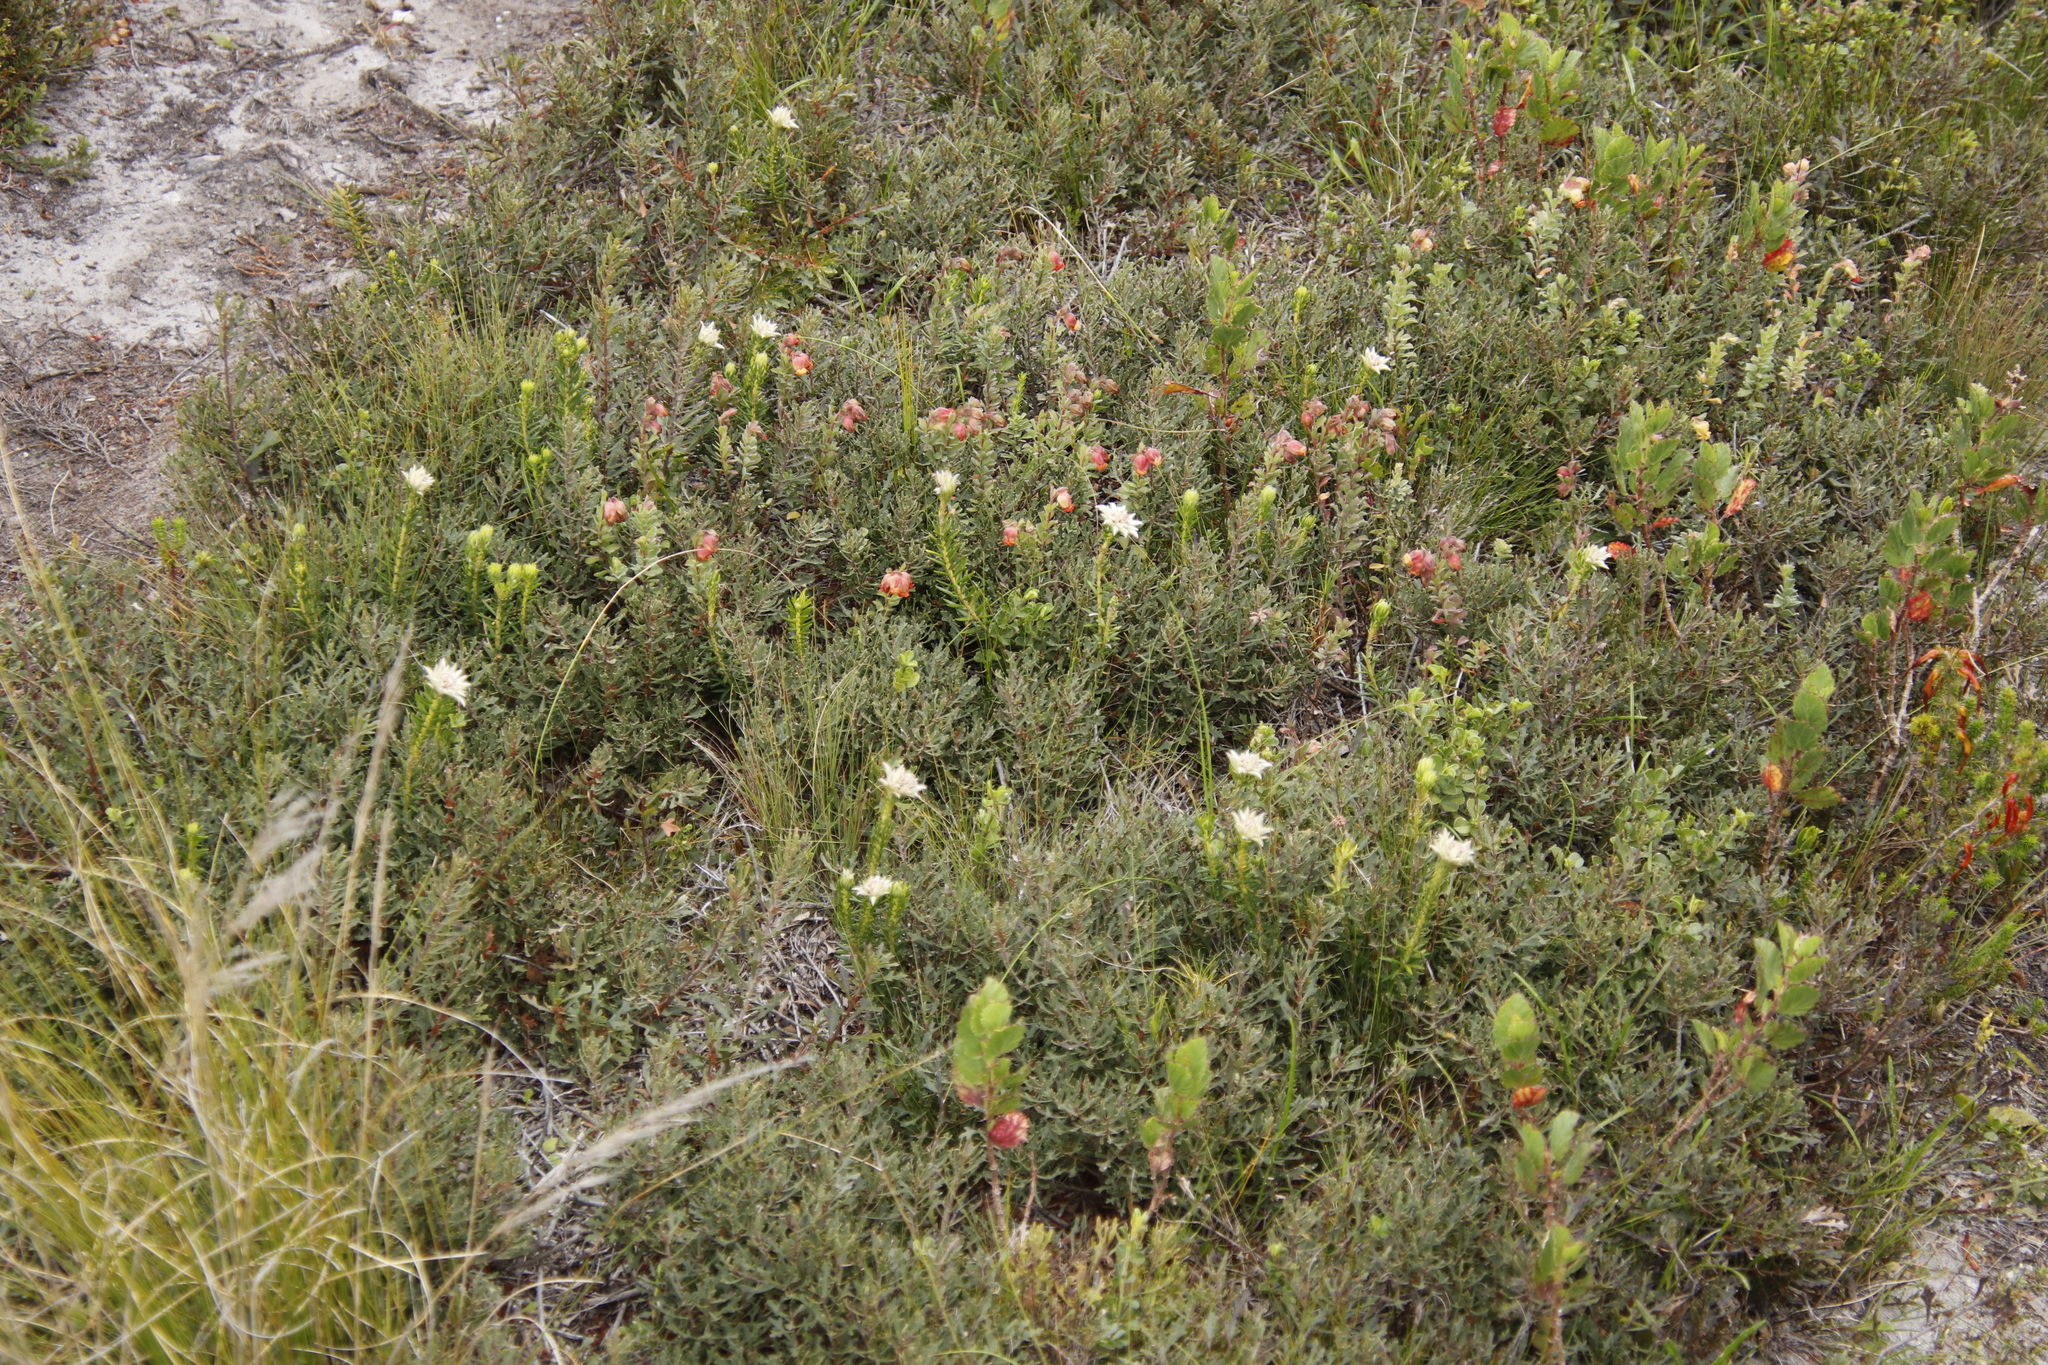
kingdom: Plantae
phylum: Tracheophyta
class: Magnoliopsida
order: Malvales
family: Malvaceae
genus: Hermannia
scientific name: Hermannia concinnifolia
